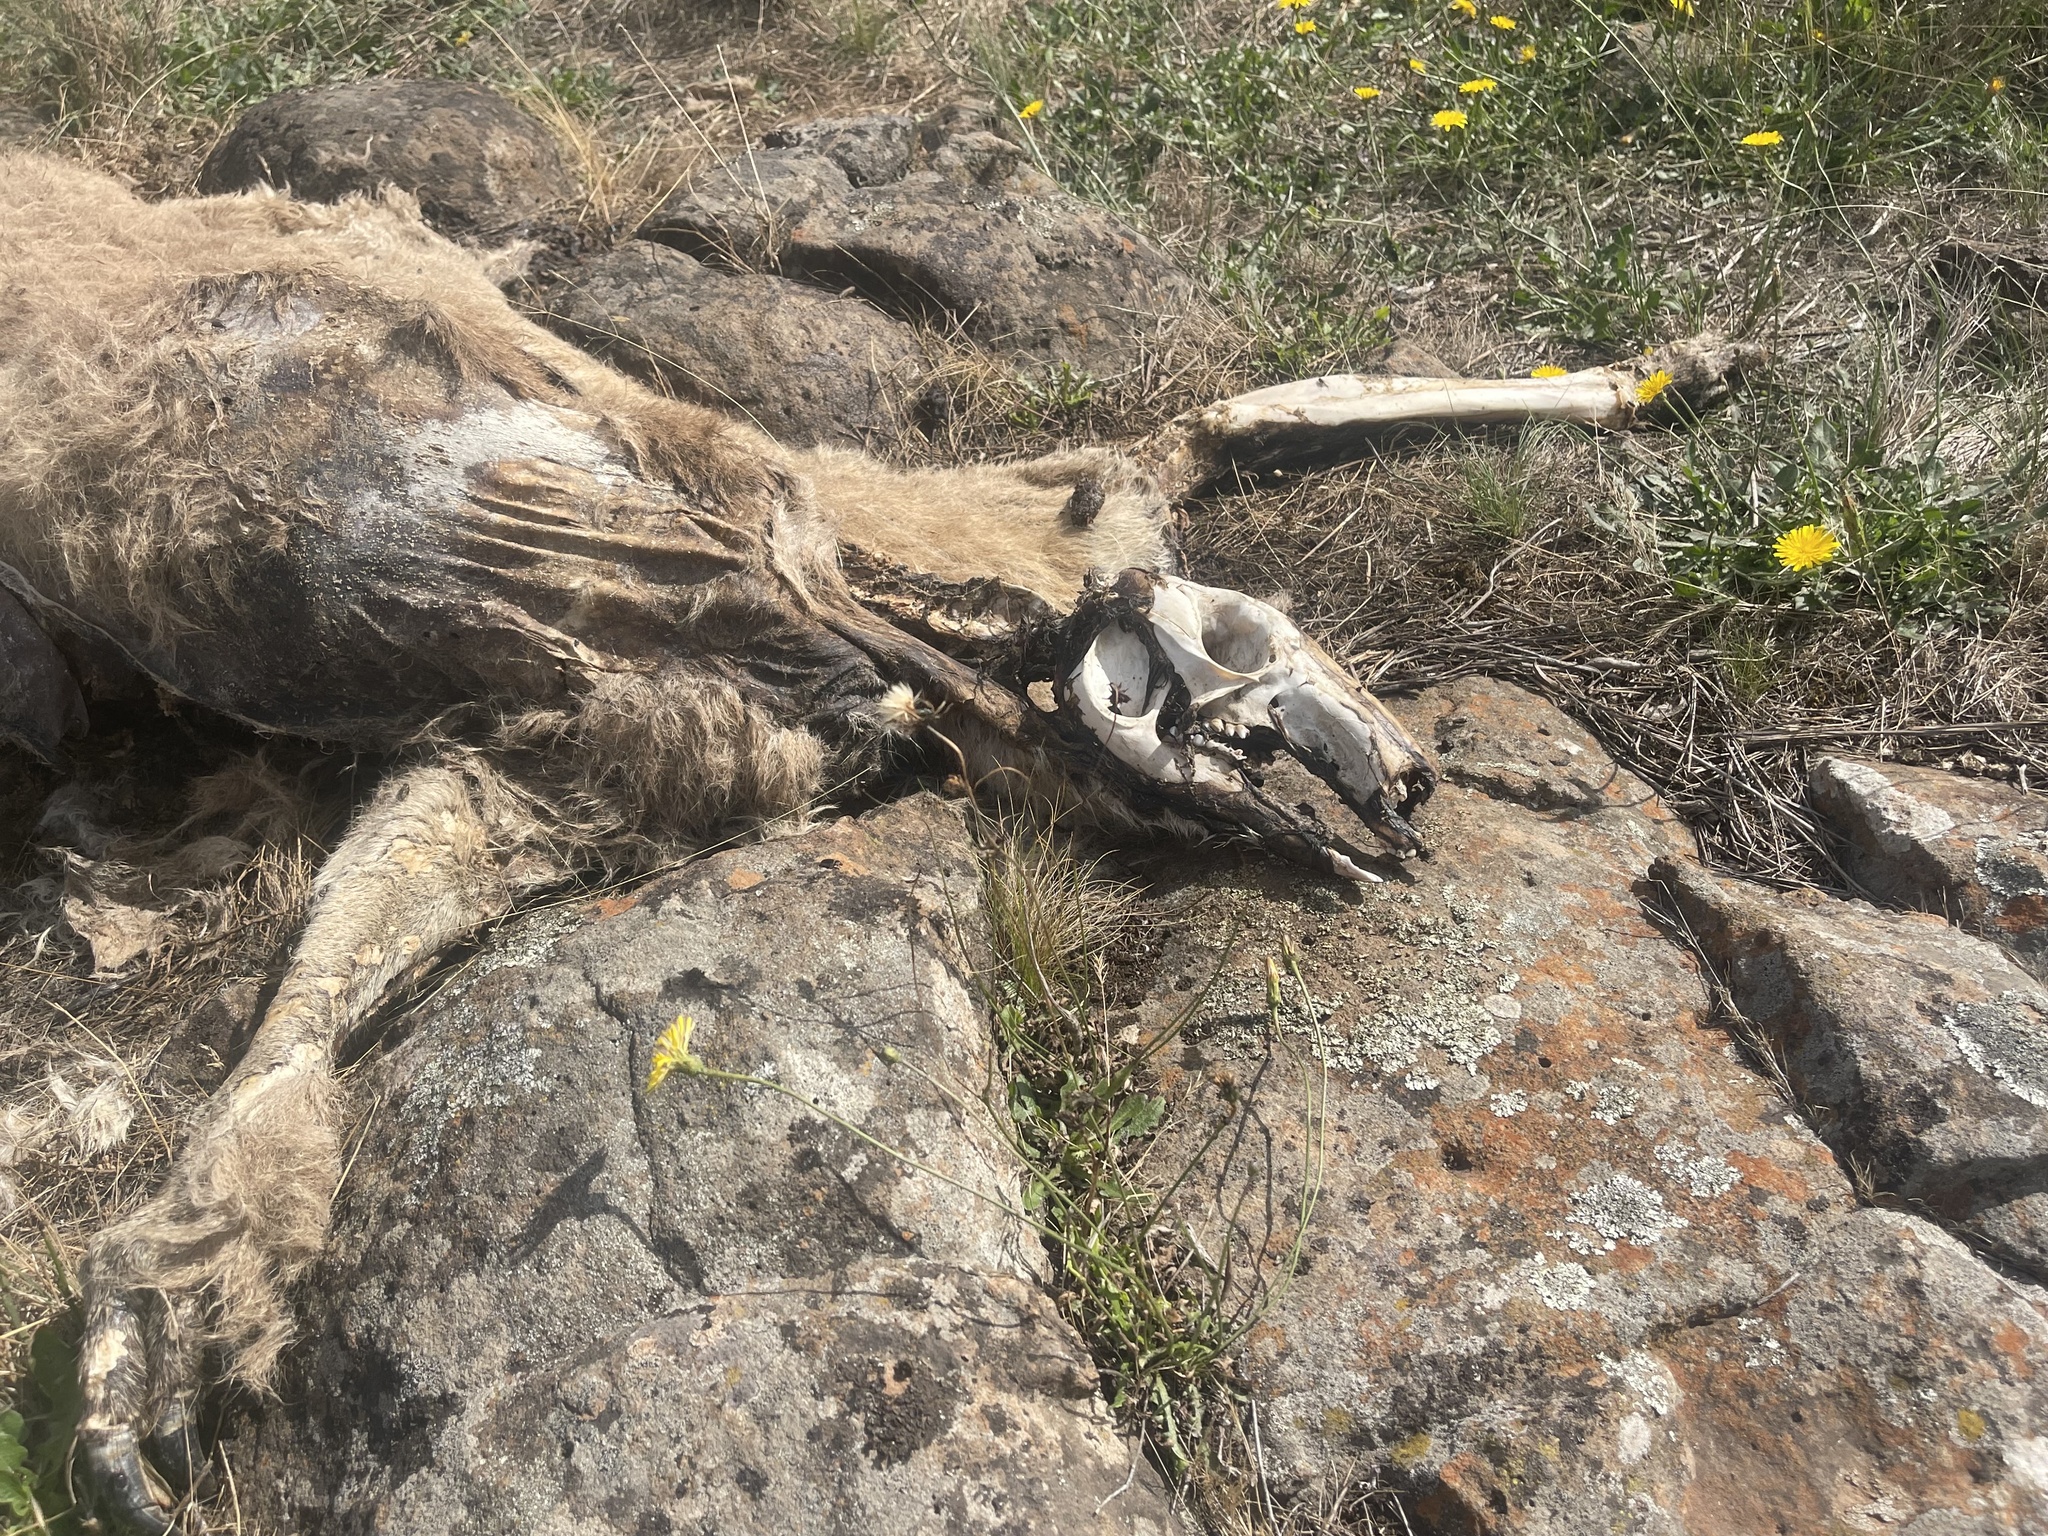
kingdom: Animalia
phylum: Chordata
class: Mammalia
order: Diprotodontia
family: Macropodidae
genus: Macropus
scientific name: Macropus giganteus
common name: Eastern grey kangaroo
